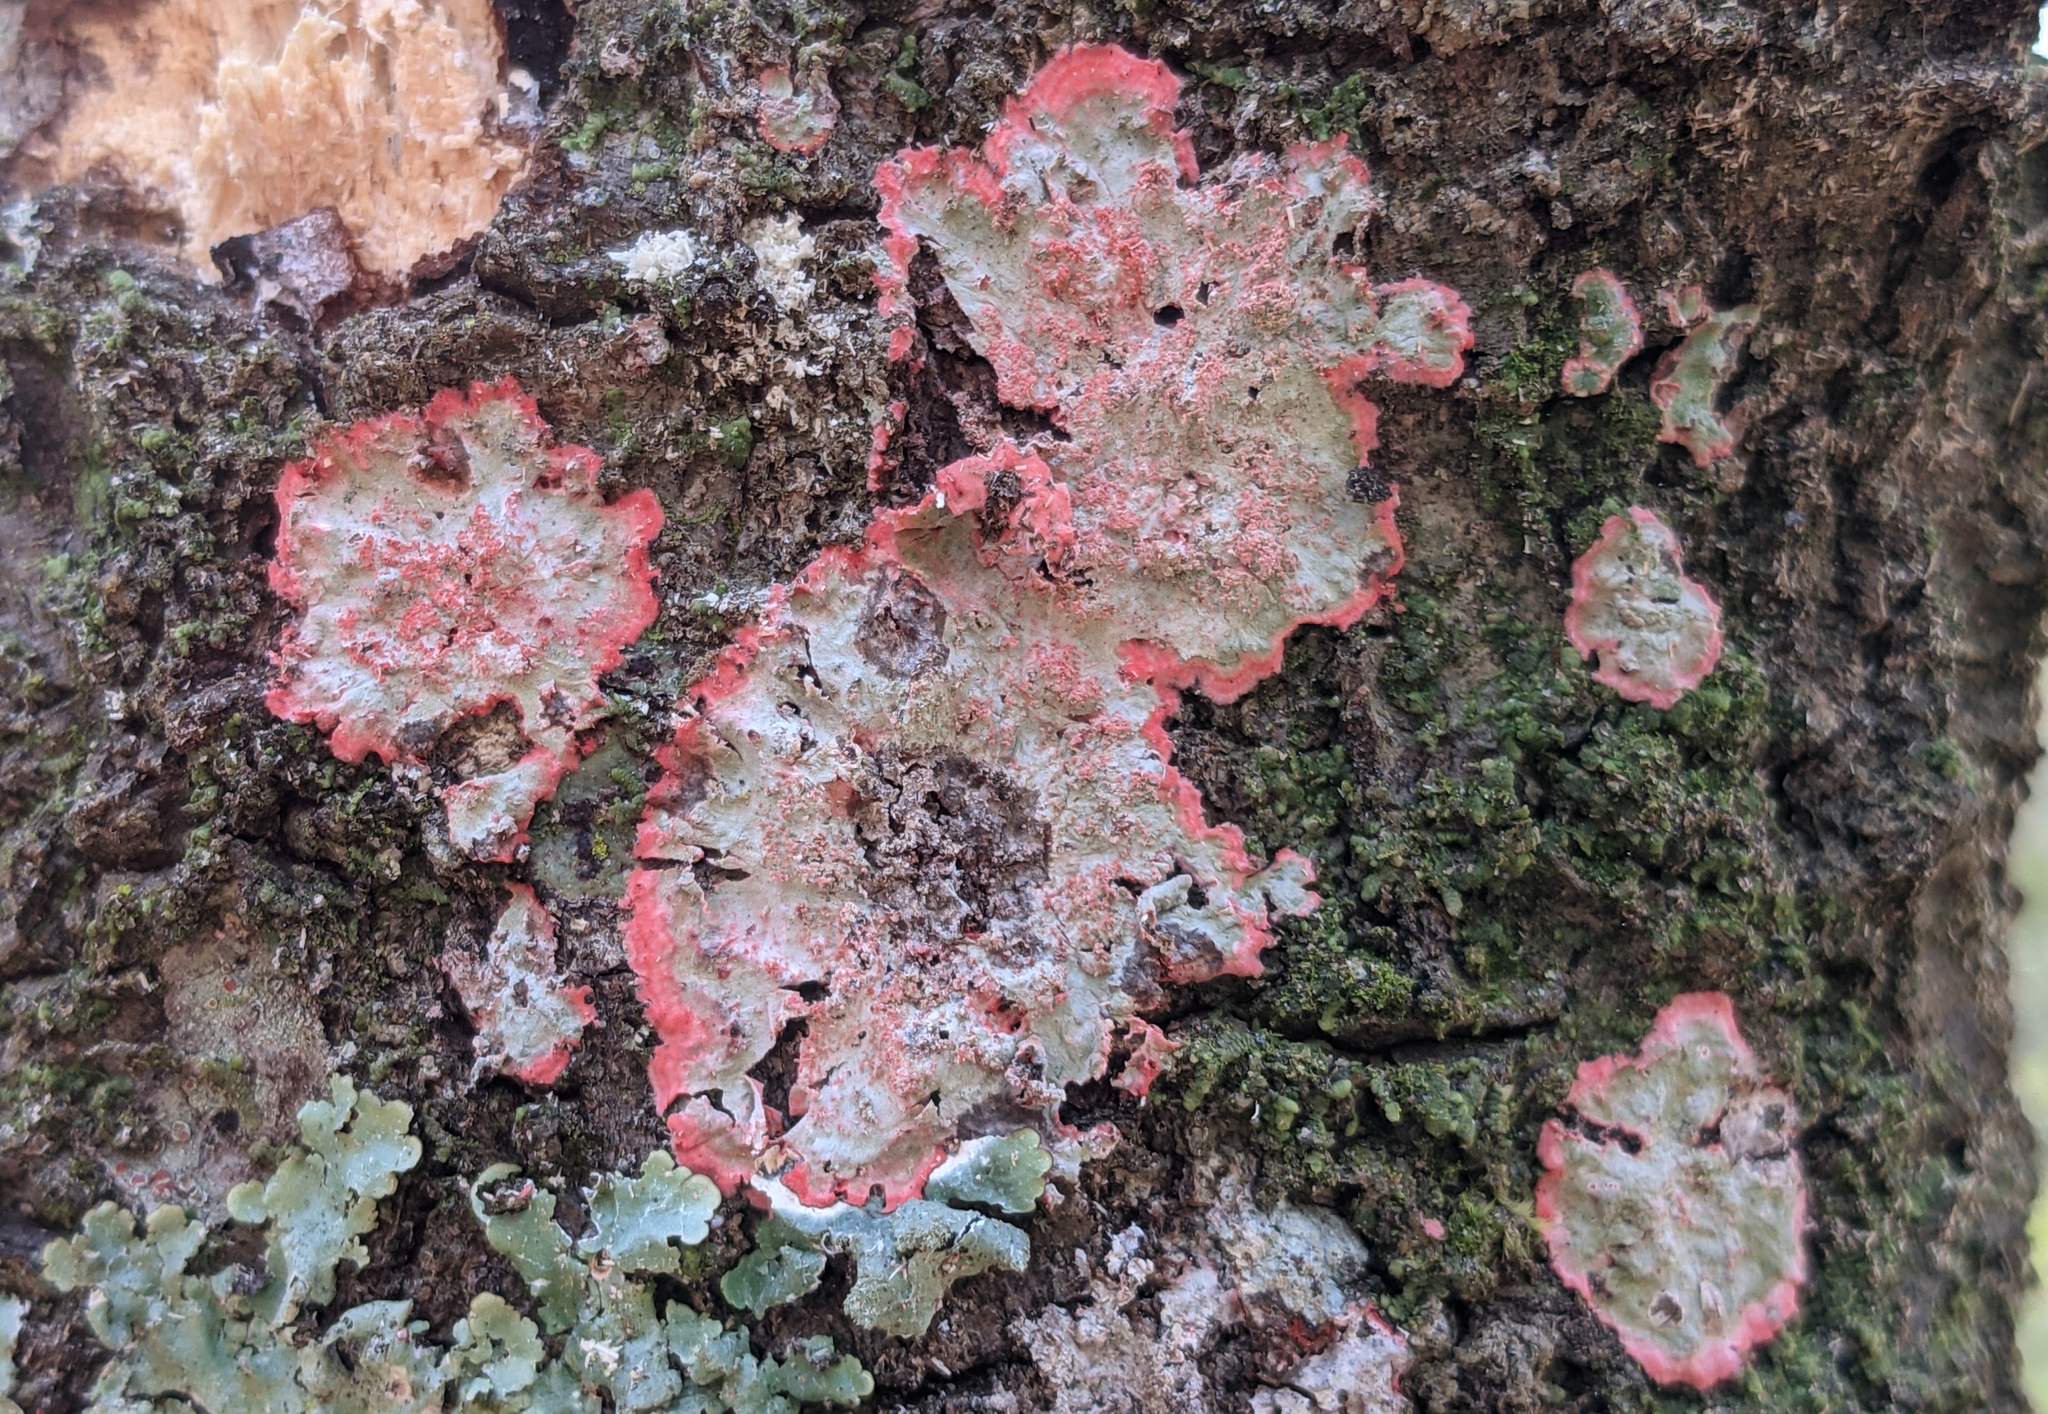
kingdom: Fungi
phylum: Ascomycota
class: Arthoniomycetes
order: Arthoniales
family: Arthoniaceae
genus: Herpothallon
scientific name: Herpothallon rubrocinctum
